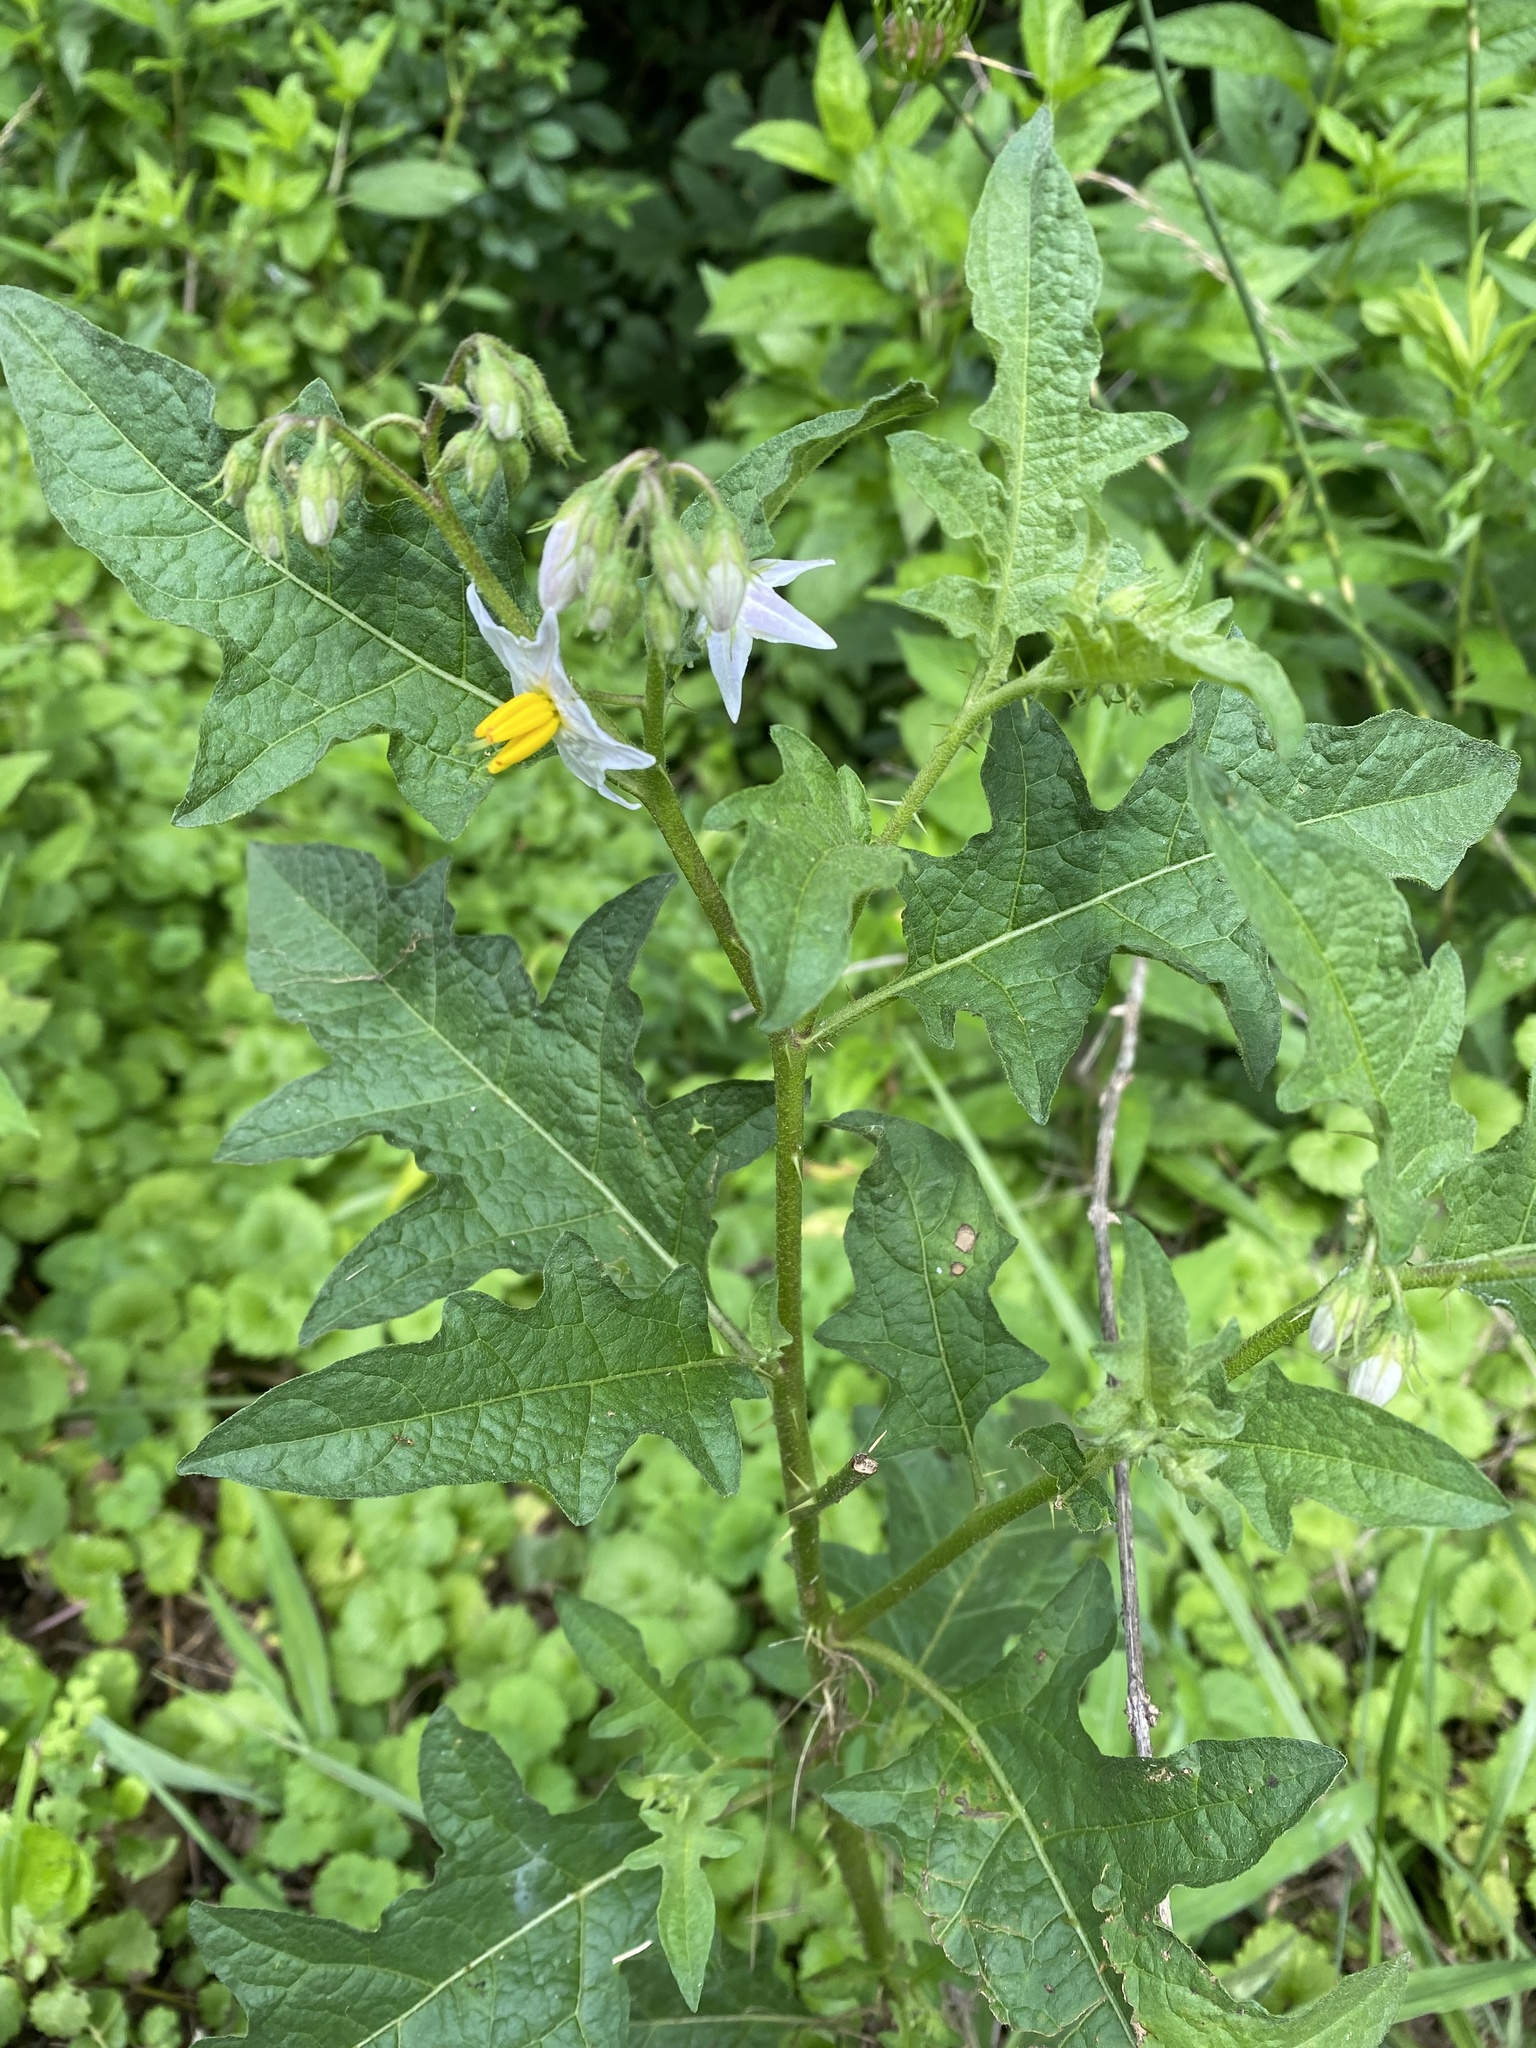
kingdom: Plantae
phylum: Tracheophyta
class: Magnoliopsida
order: Solanales
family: Solanaceae
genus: Solanum
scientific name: Solanum carolinense
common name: Horse-nettle
